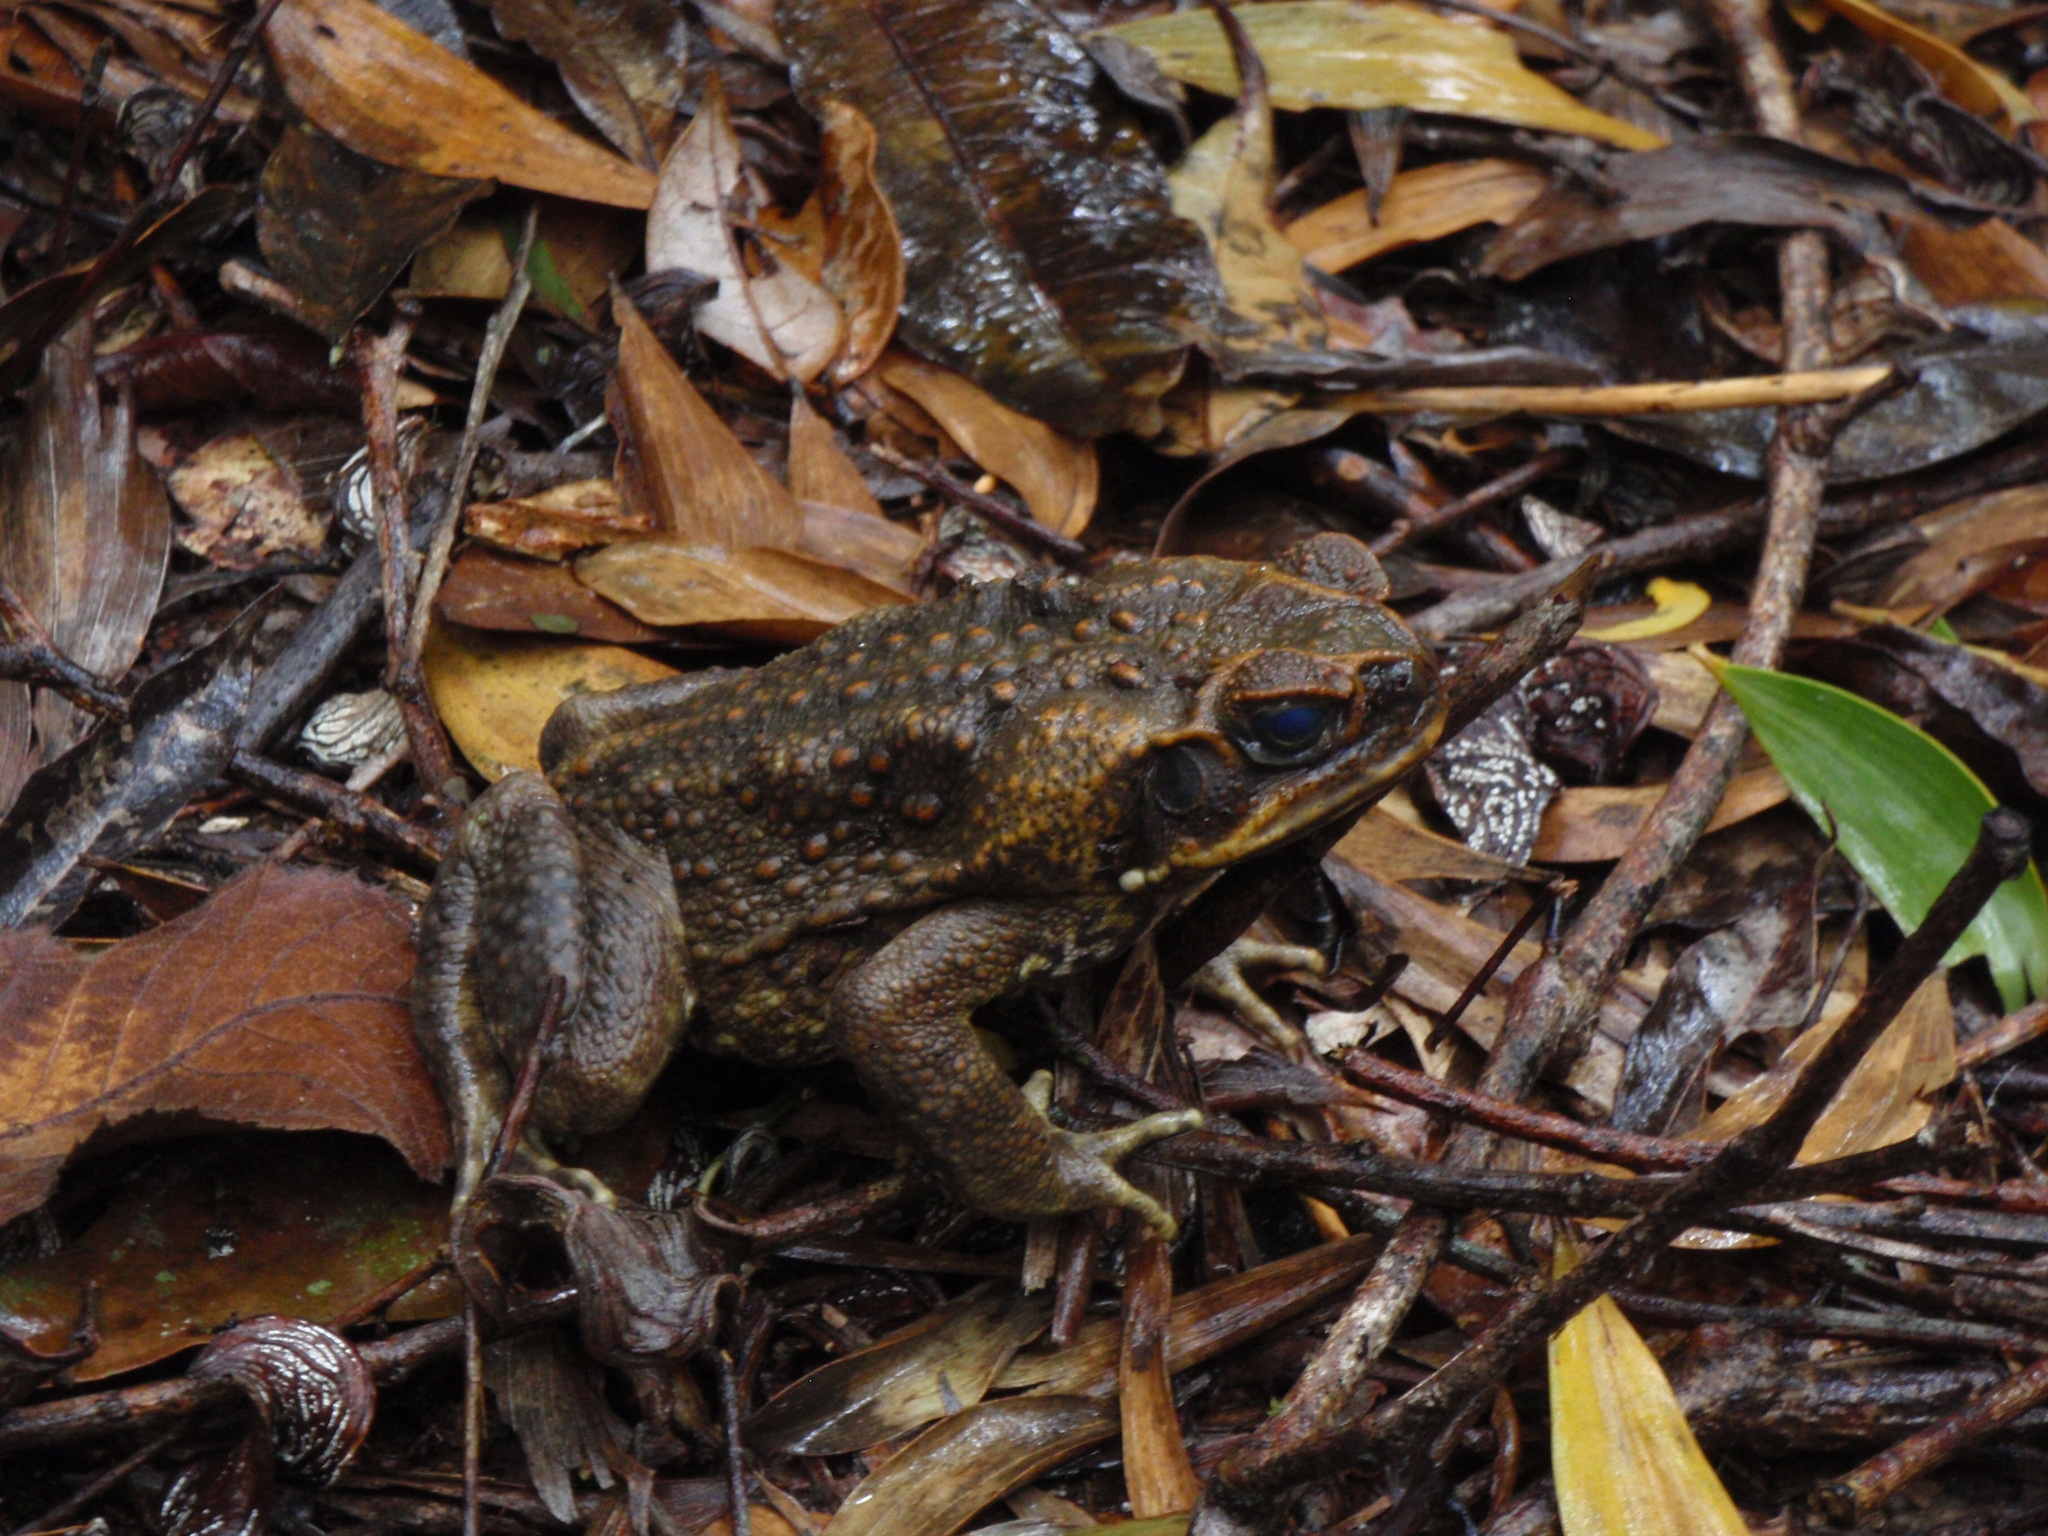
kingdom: Animalia
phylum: Chordata
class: Amphibia
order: Anura
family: Bufonidae
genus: Rhinella
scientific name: Rhinella marina
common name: Cane toad
